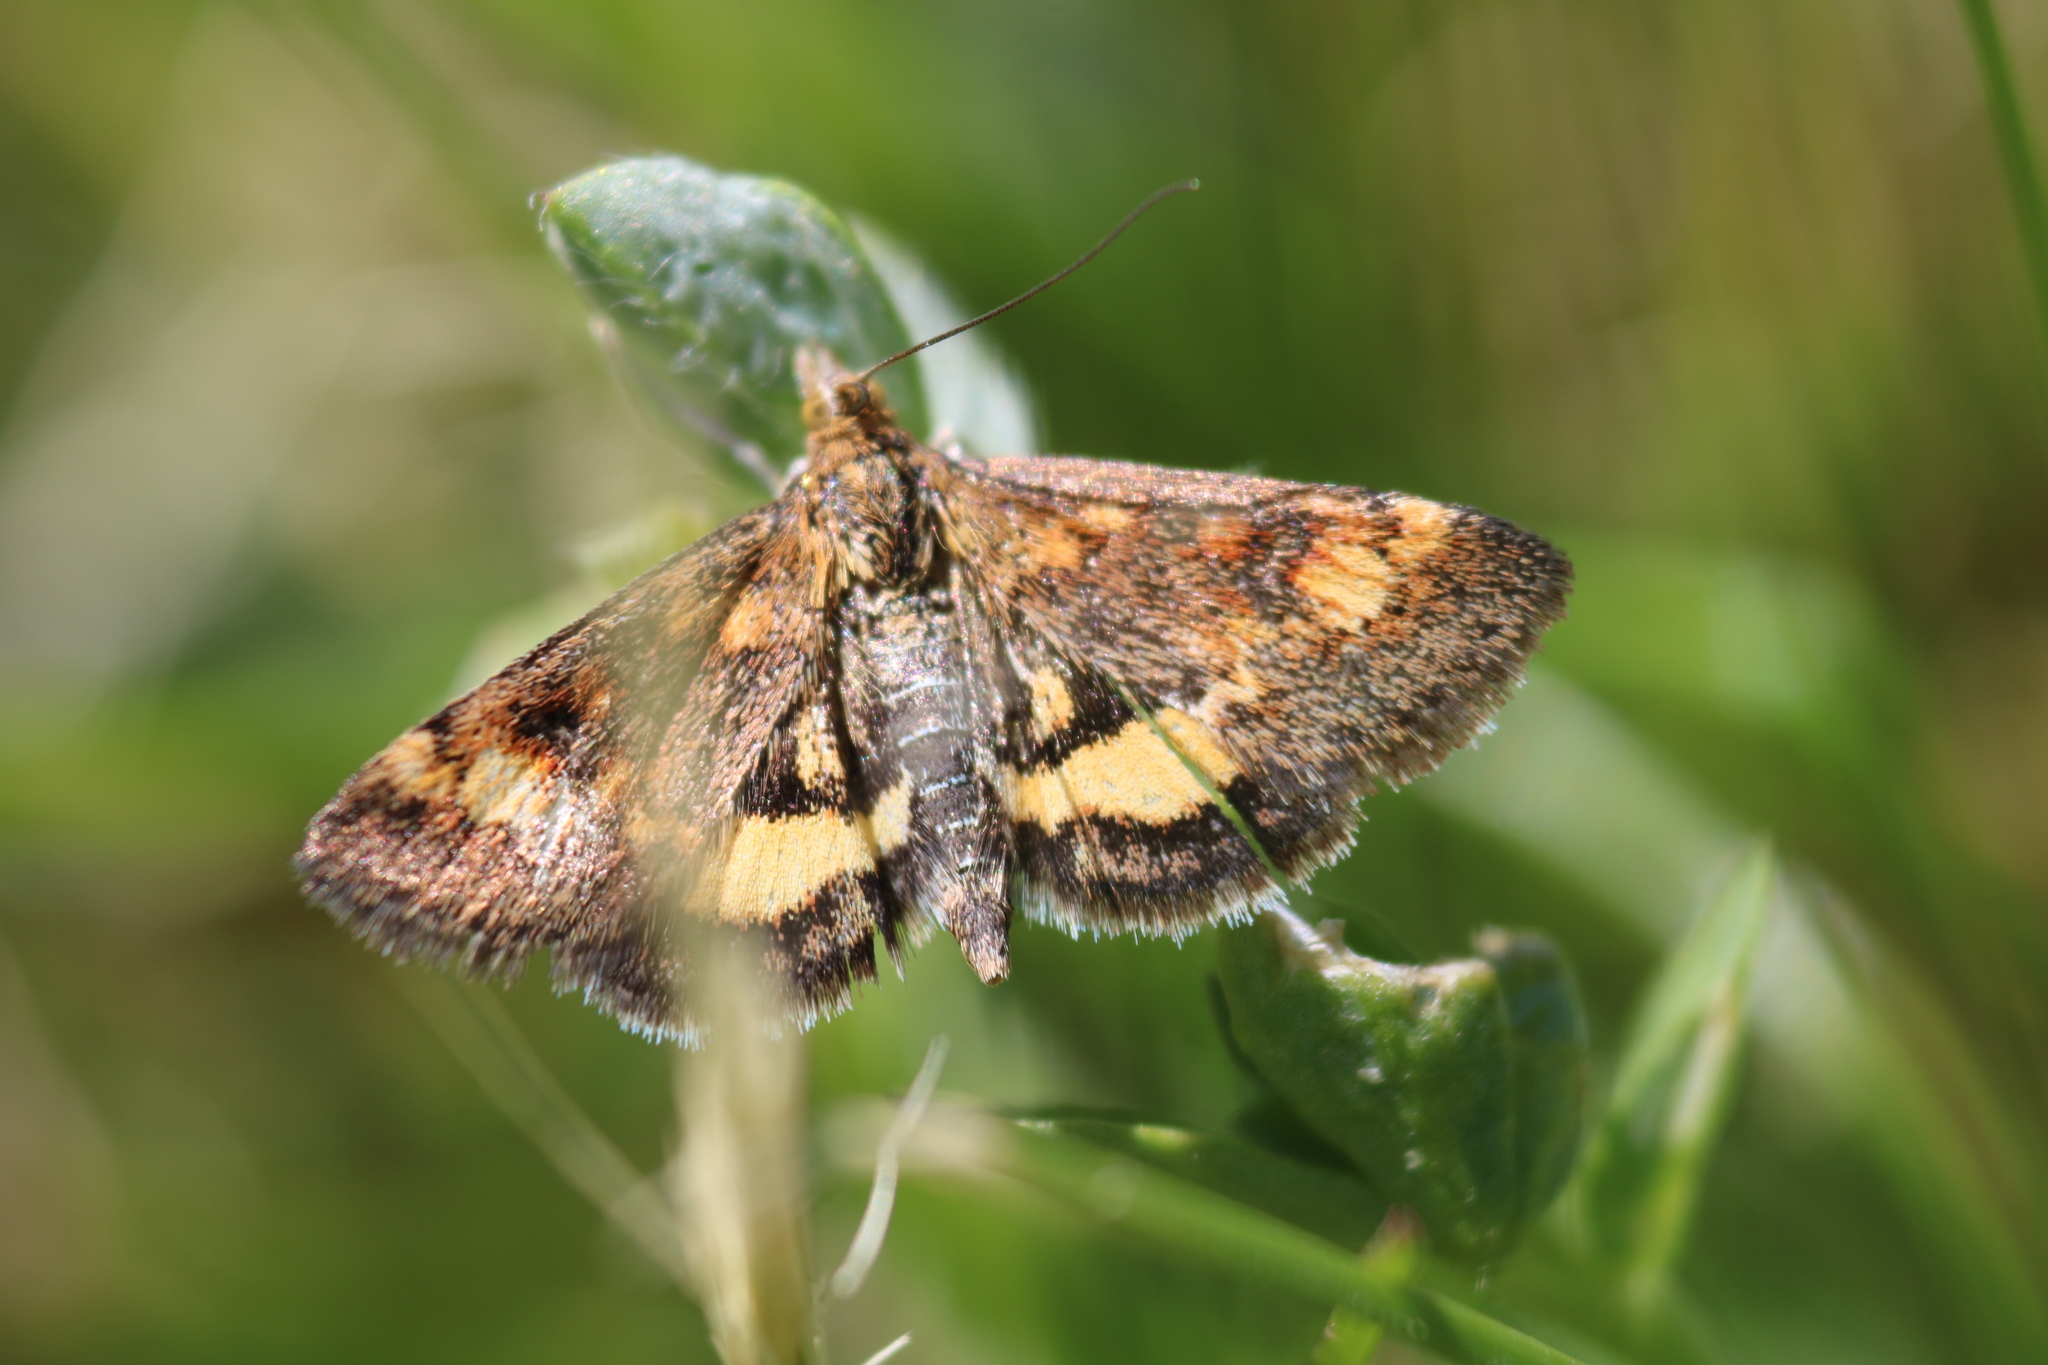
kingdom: Animalia
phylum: Arthropoda
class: Insecta
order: Lepidoptera
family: Crambidae
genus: Pyrausta
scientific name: Pyrausta orphisalis
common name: Orange mint moth
